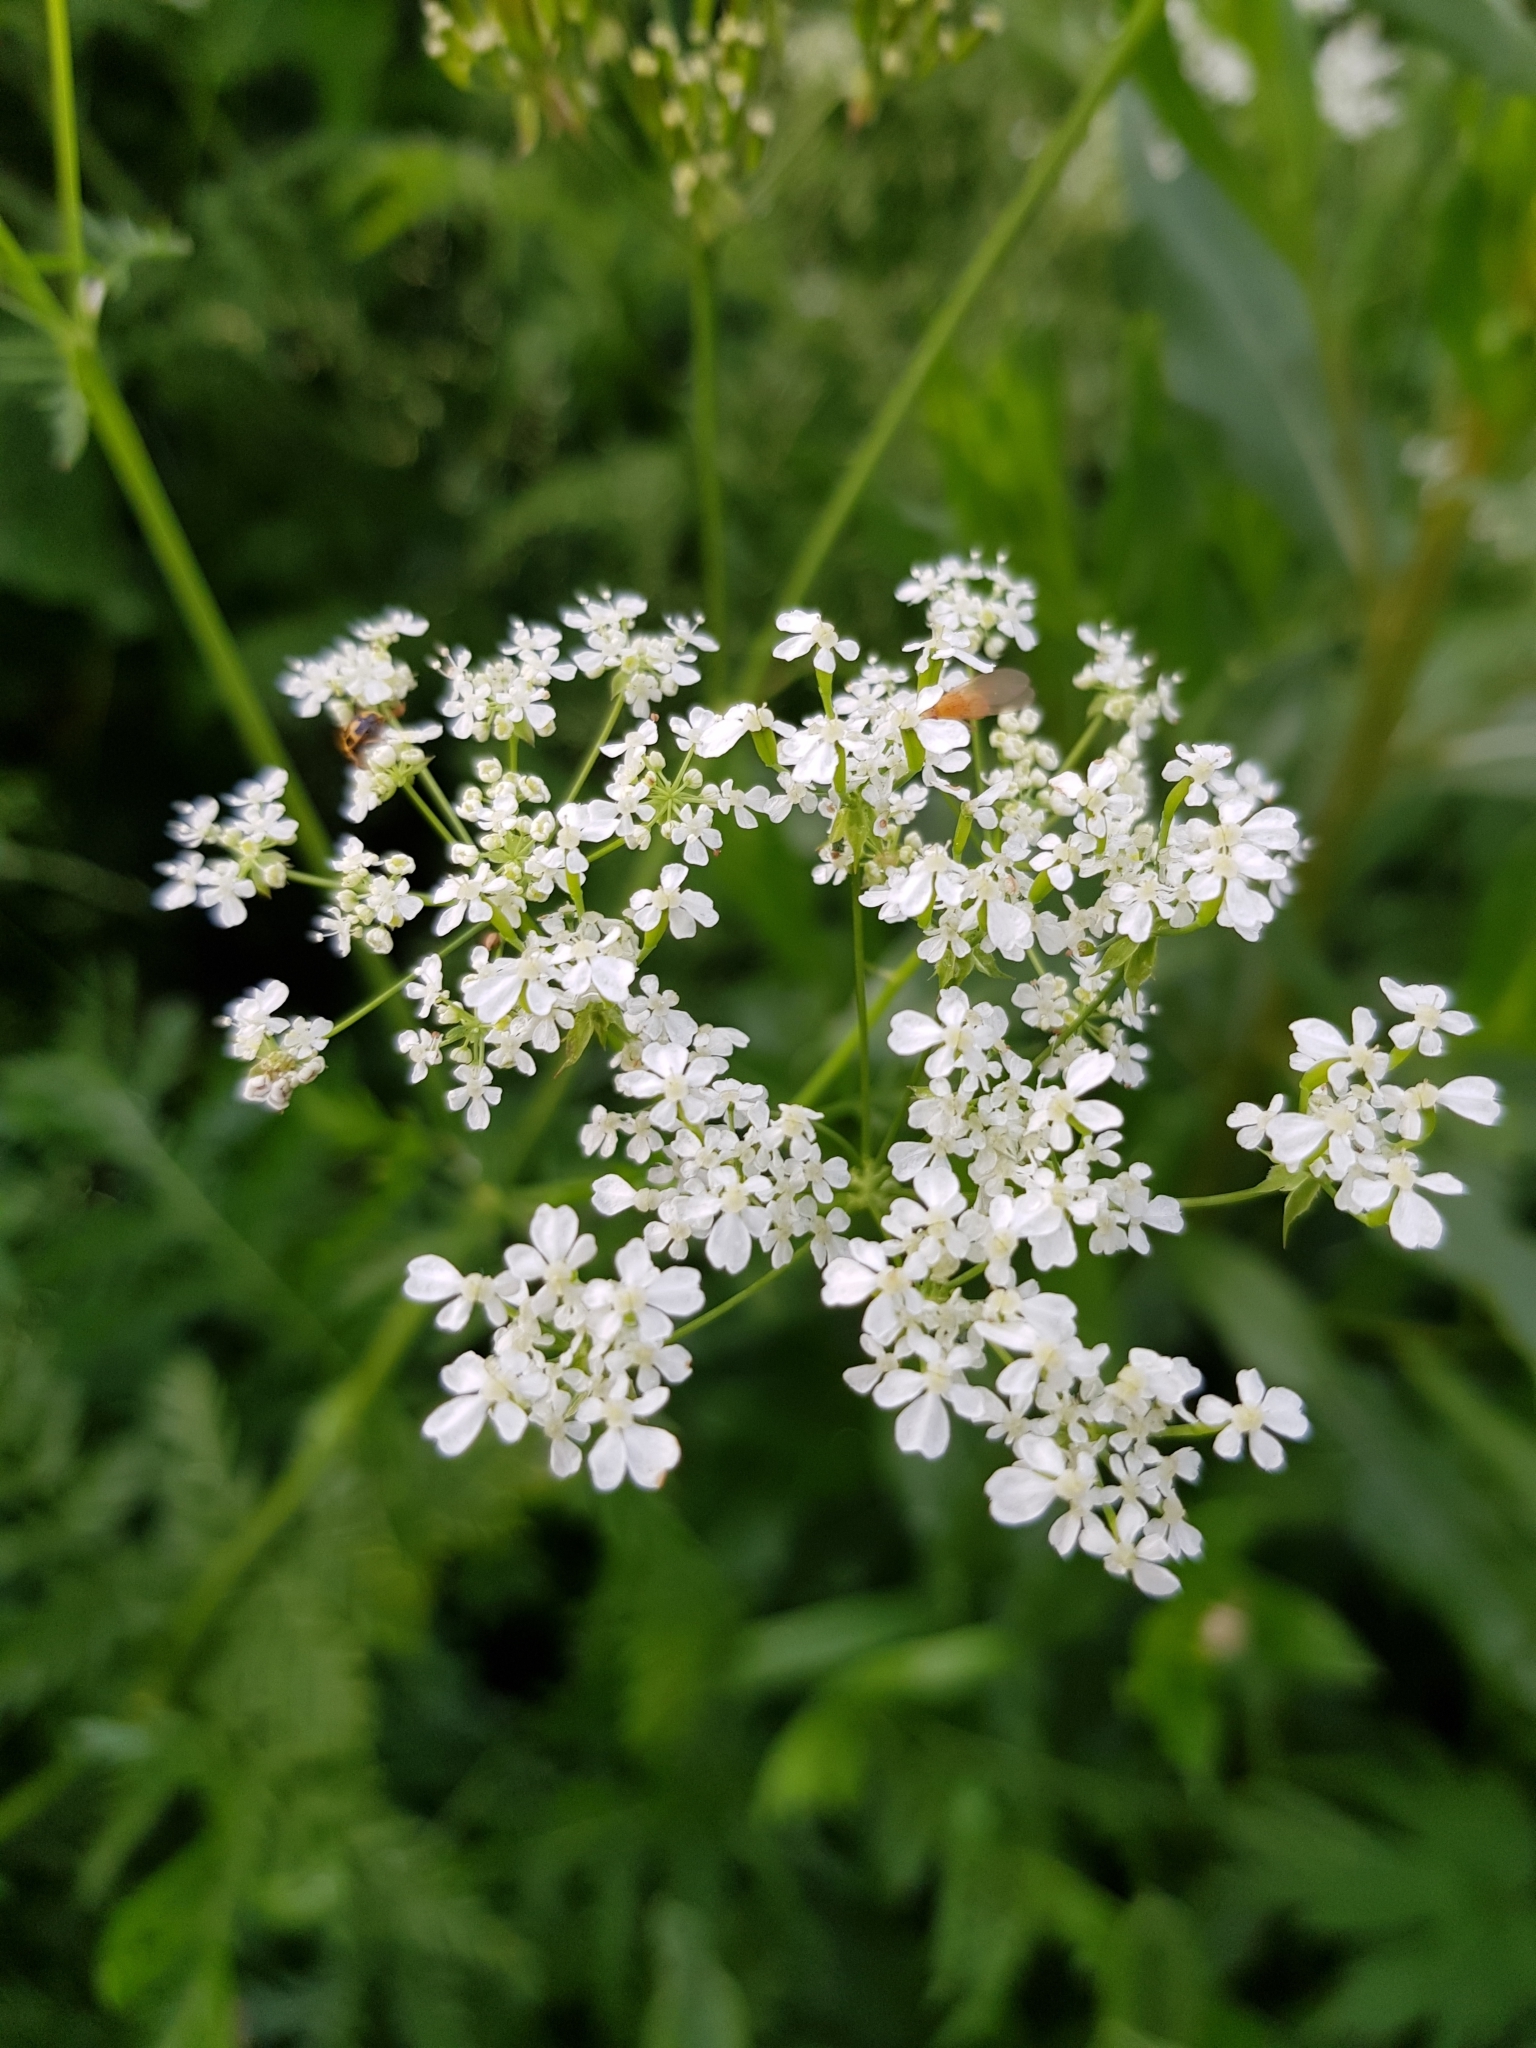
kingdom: Plantae
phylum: Tracheophyta
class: Magnoliopsida
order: Apiales
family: Apiaceae
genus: Anthriscus
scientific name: Anthriscus sylvestris
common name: Cow parsley
